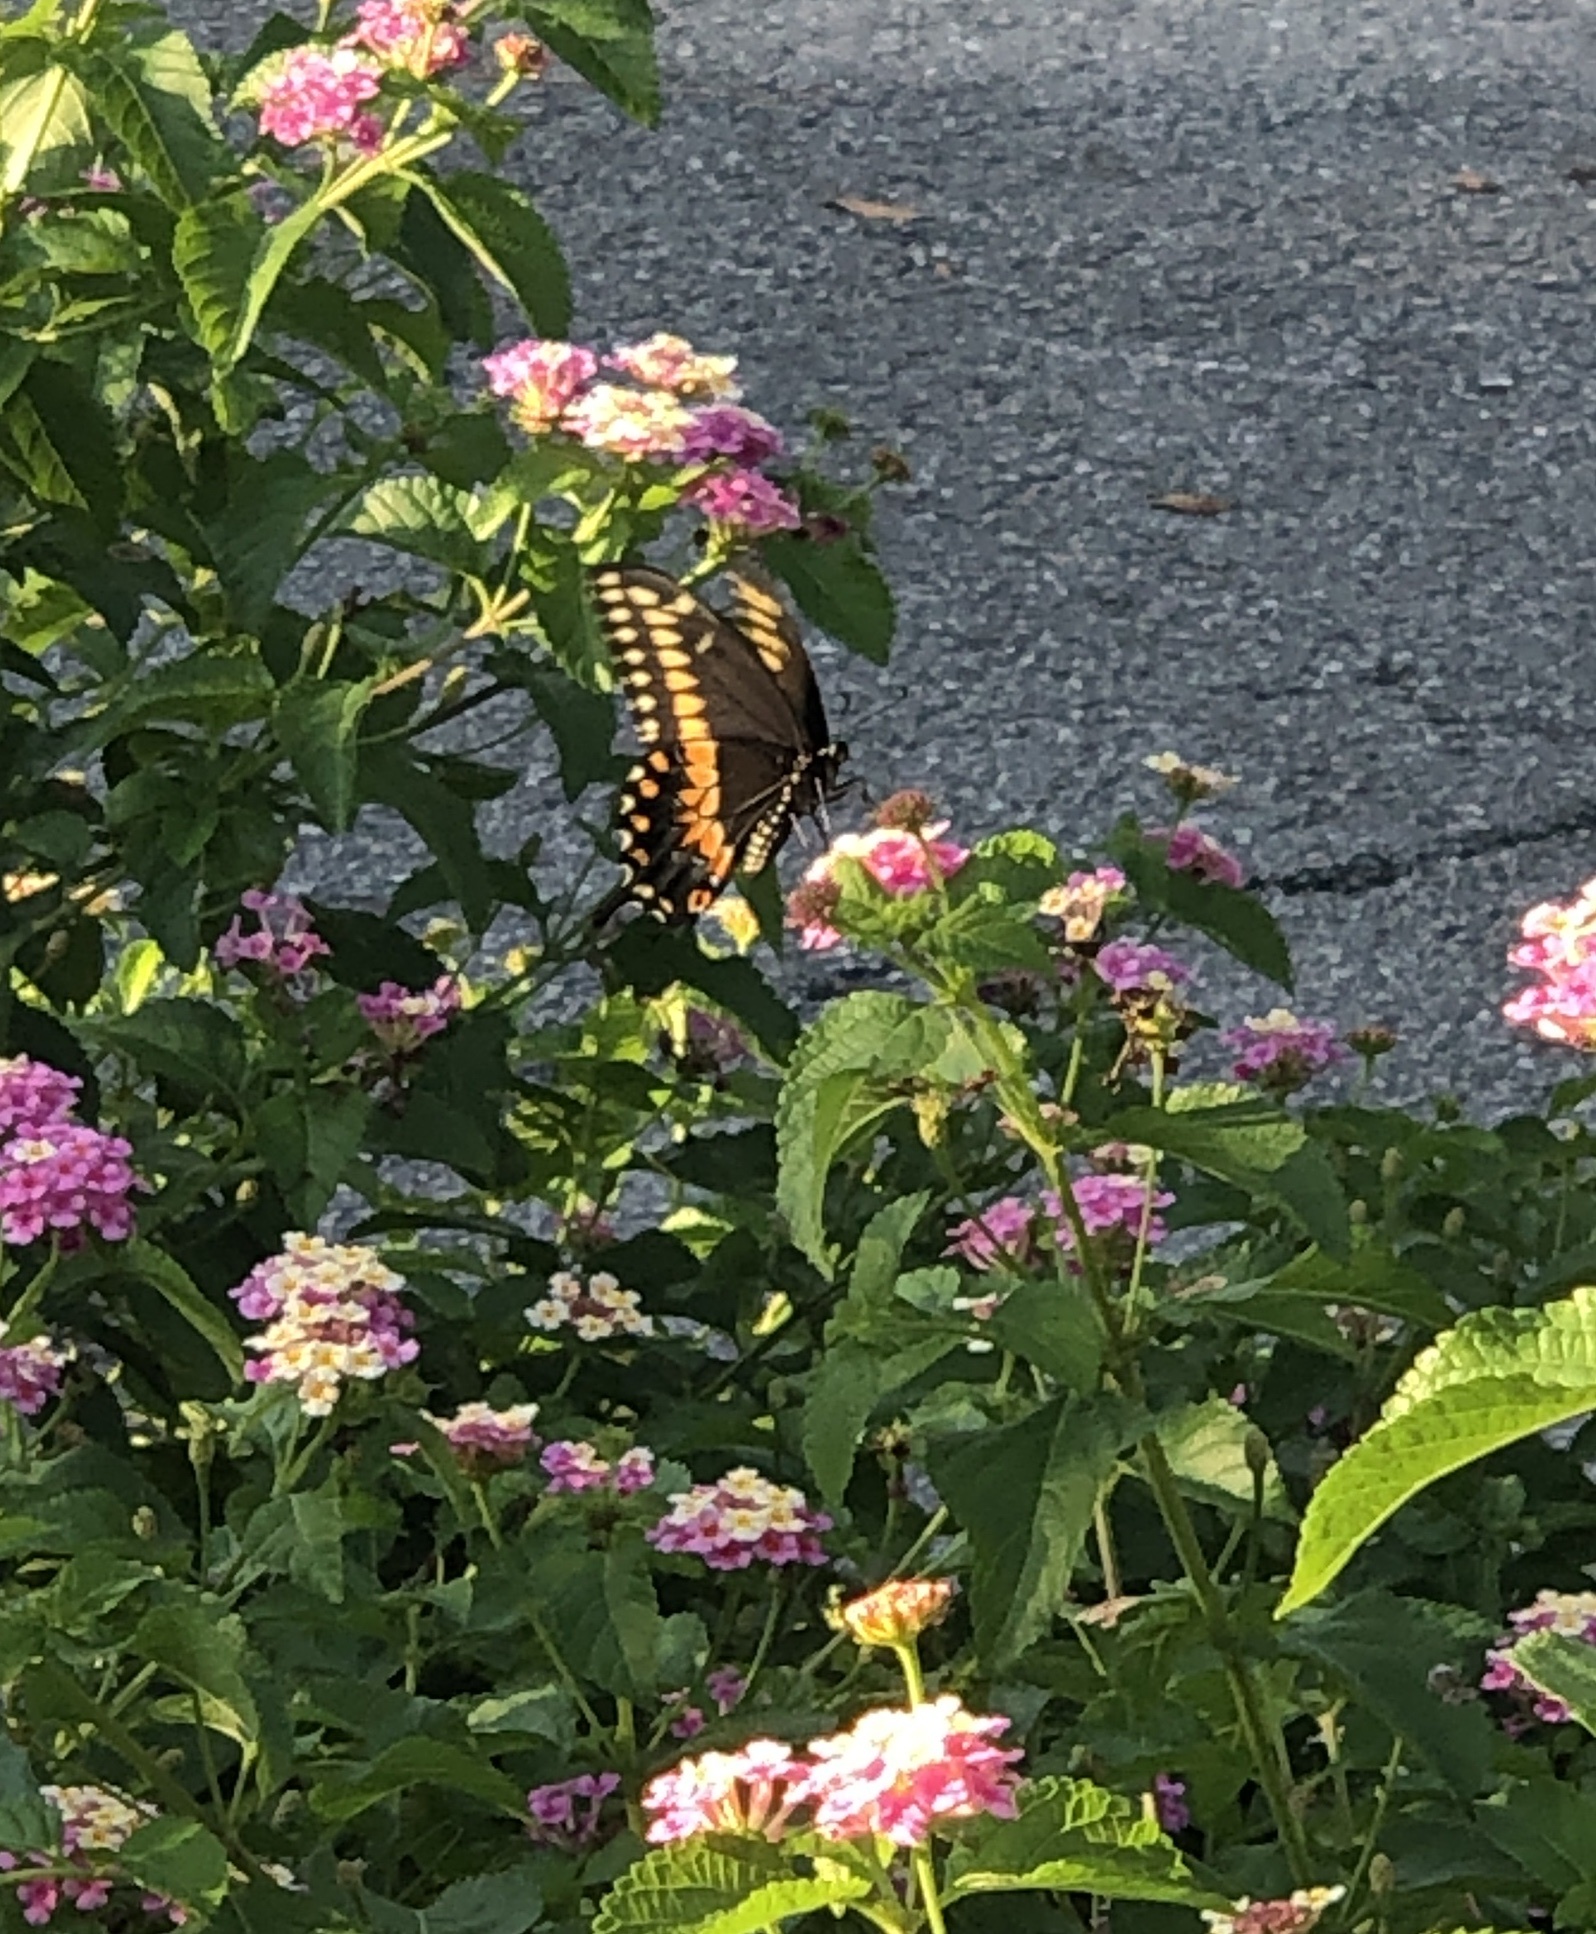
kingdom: Animalia
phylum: Arthropoda
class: Insecta
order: Lepidoptera
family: Papilionidae
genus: Papilio
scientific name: Papilio polyxenes
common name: Black swallowtail
